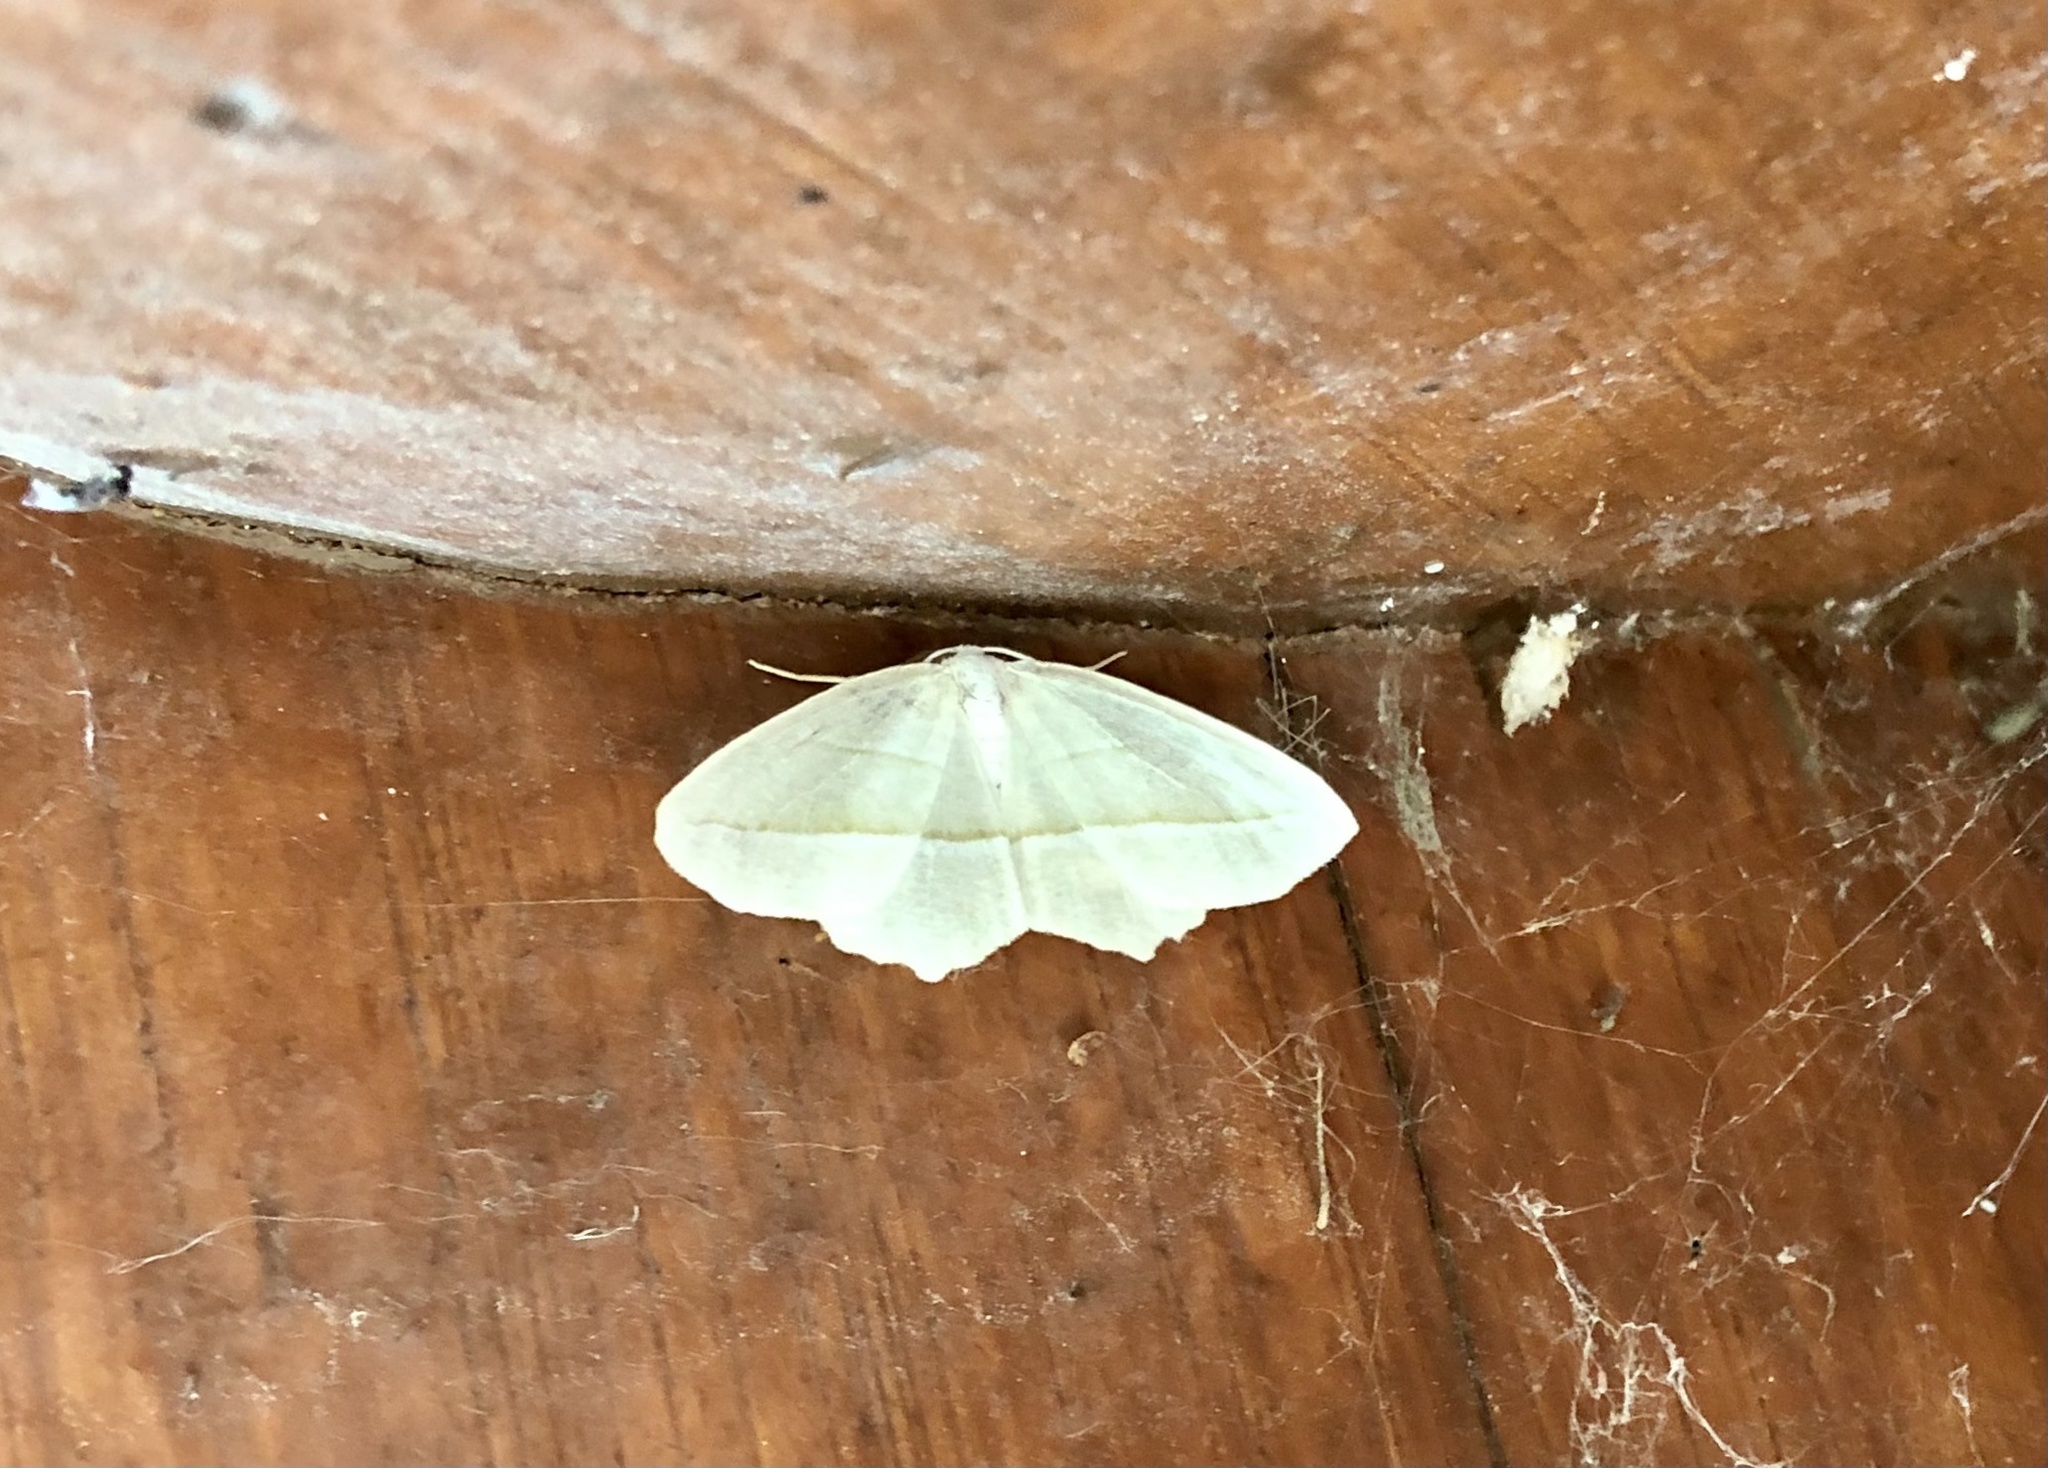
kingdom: Animalia
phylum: Arthropoda
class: Insecta
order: Lepidoptera
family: Geometridae
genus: Campaea
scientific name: Campaea perlata
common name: Fringed looper
